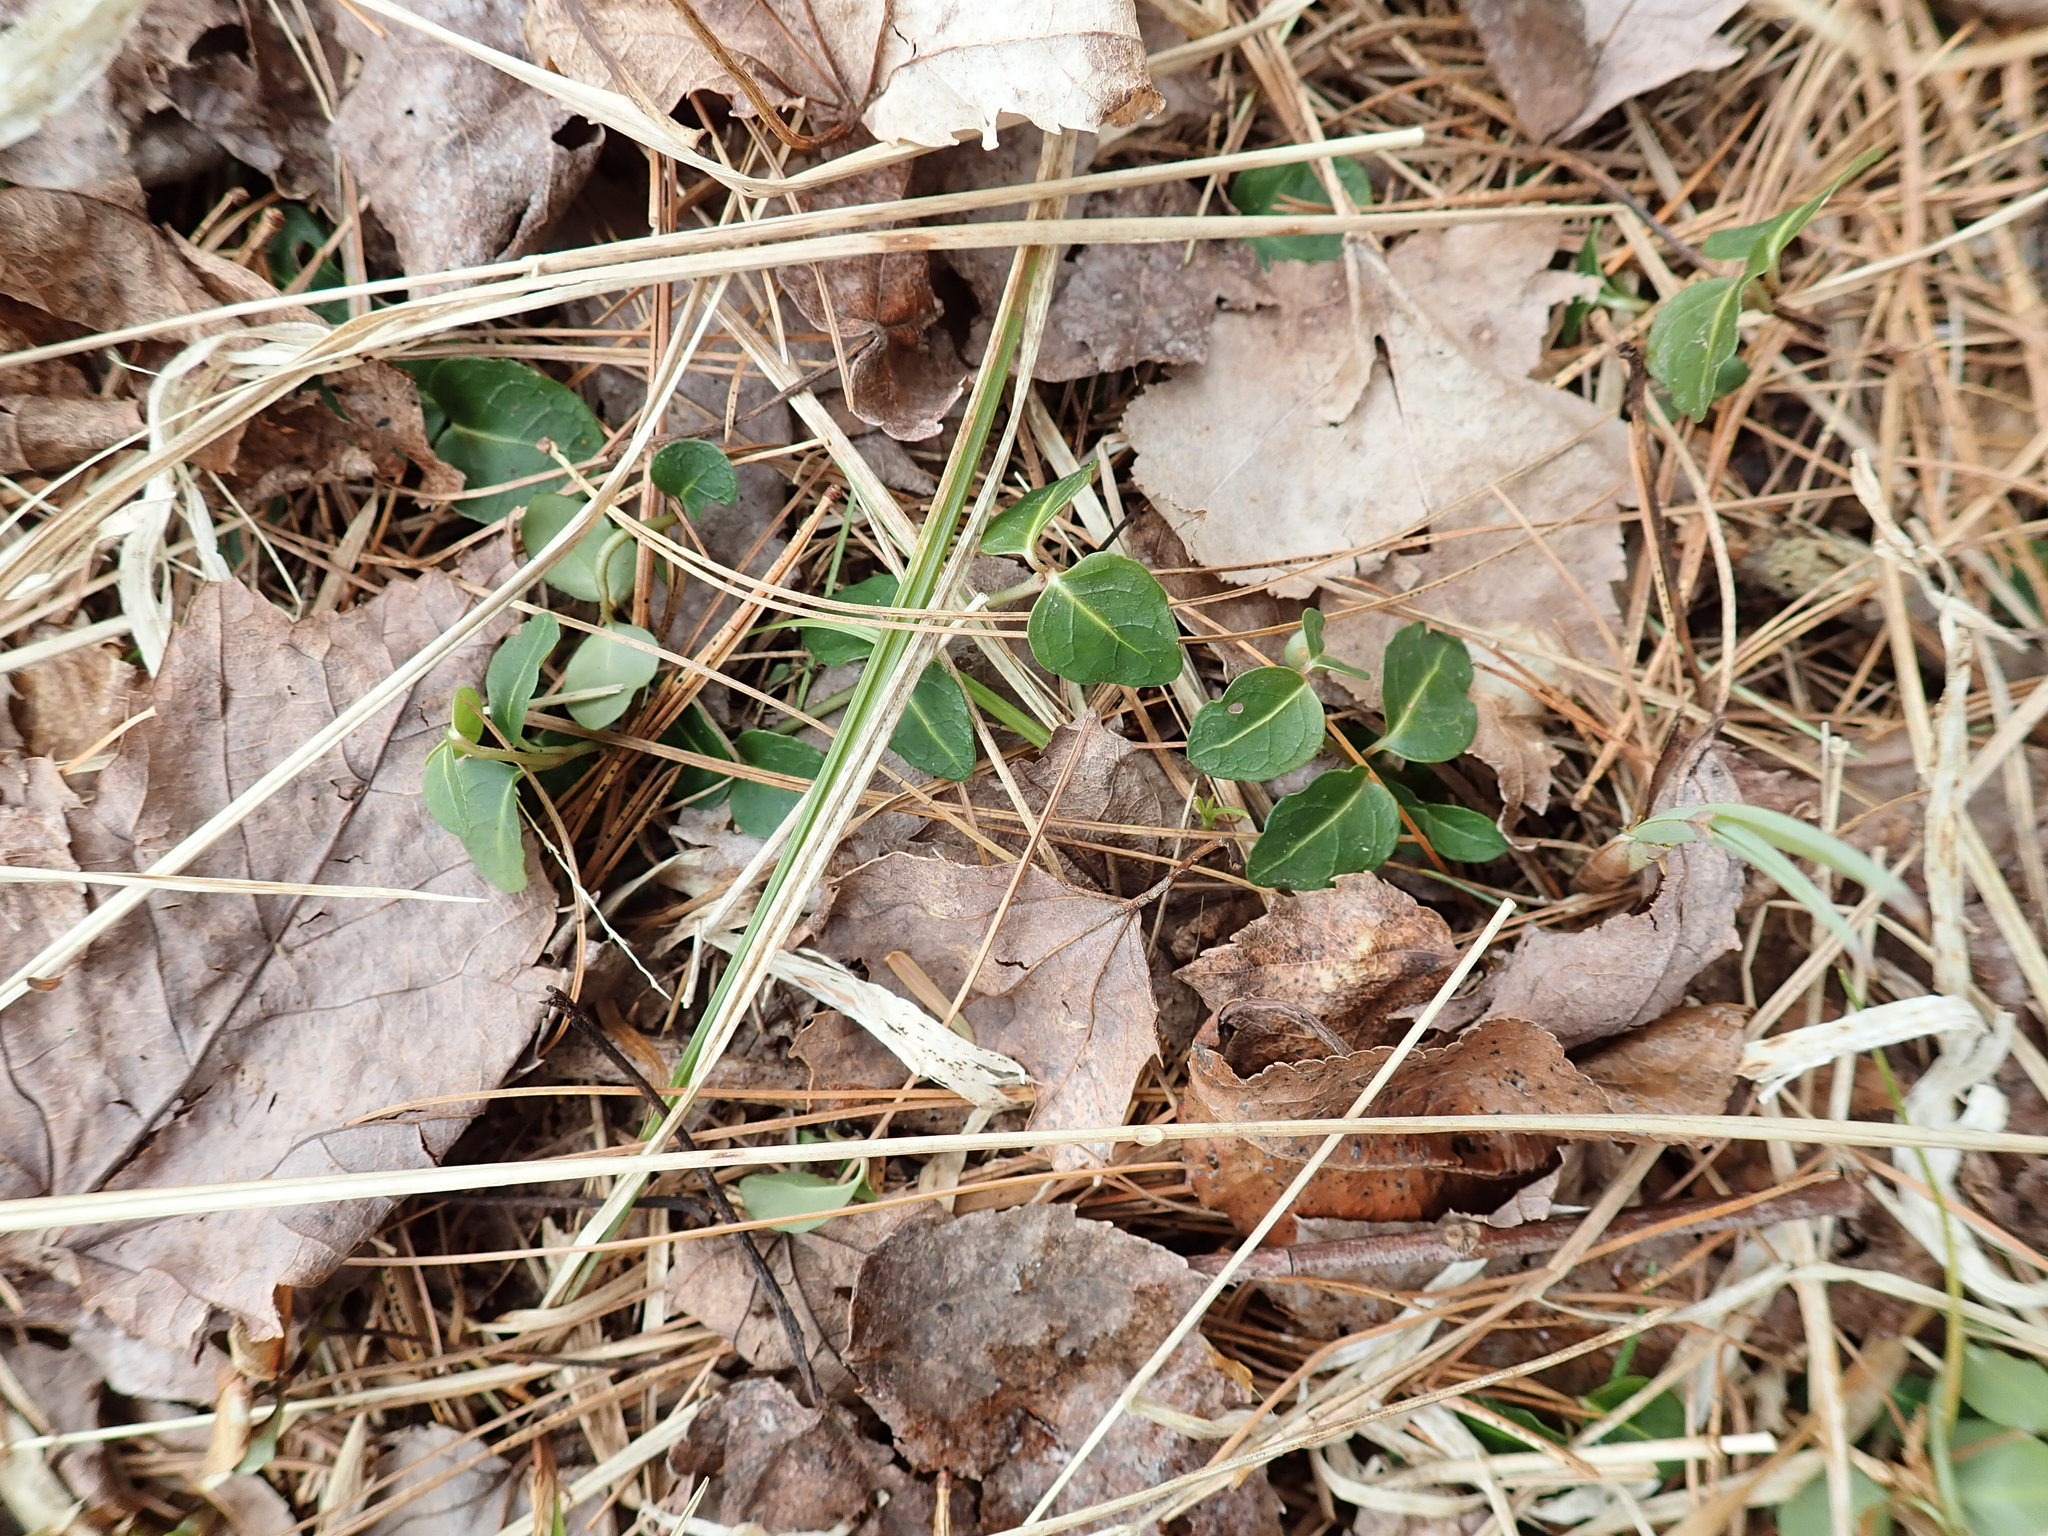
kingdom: Plantae
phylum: Tracheophyta
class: Magnoliopsida
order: Gentianales
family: Rubiaceae
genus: Mitchella
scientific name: Mitchella repens
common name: Partridge-berry
